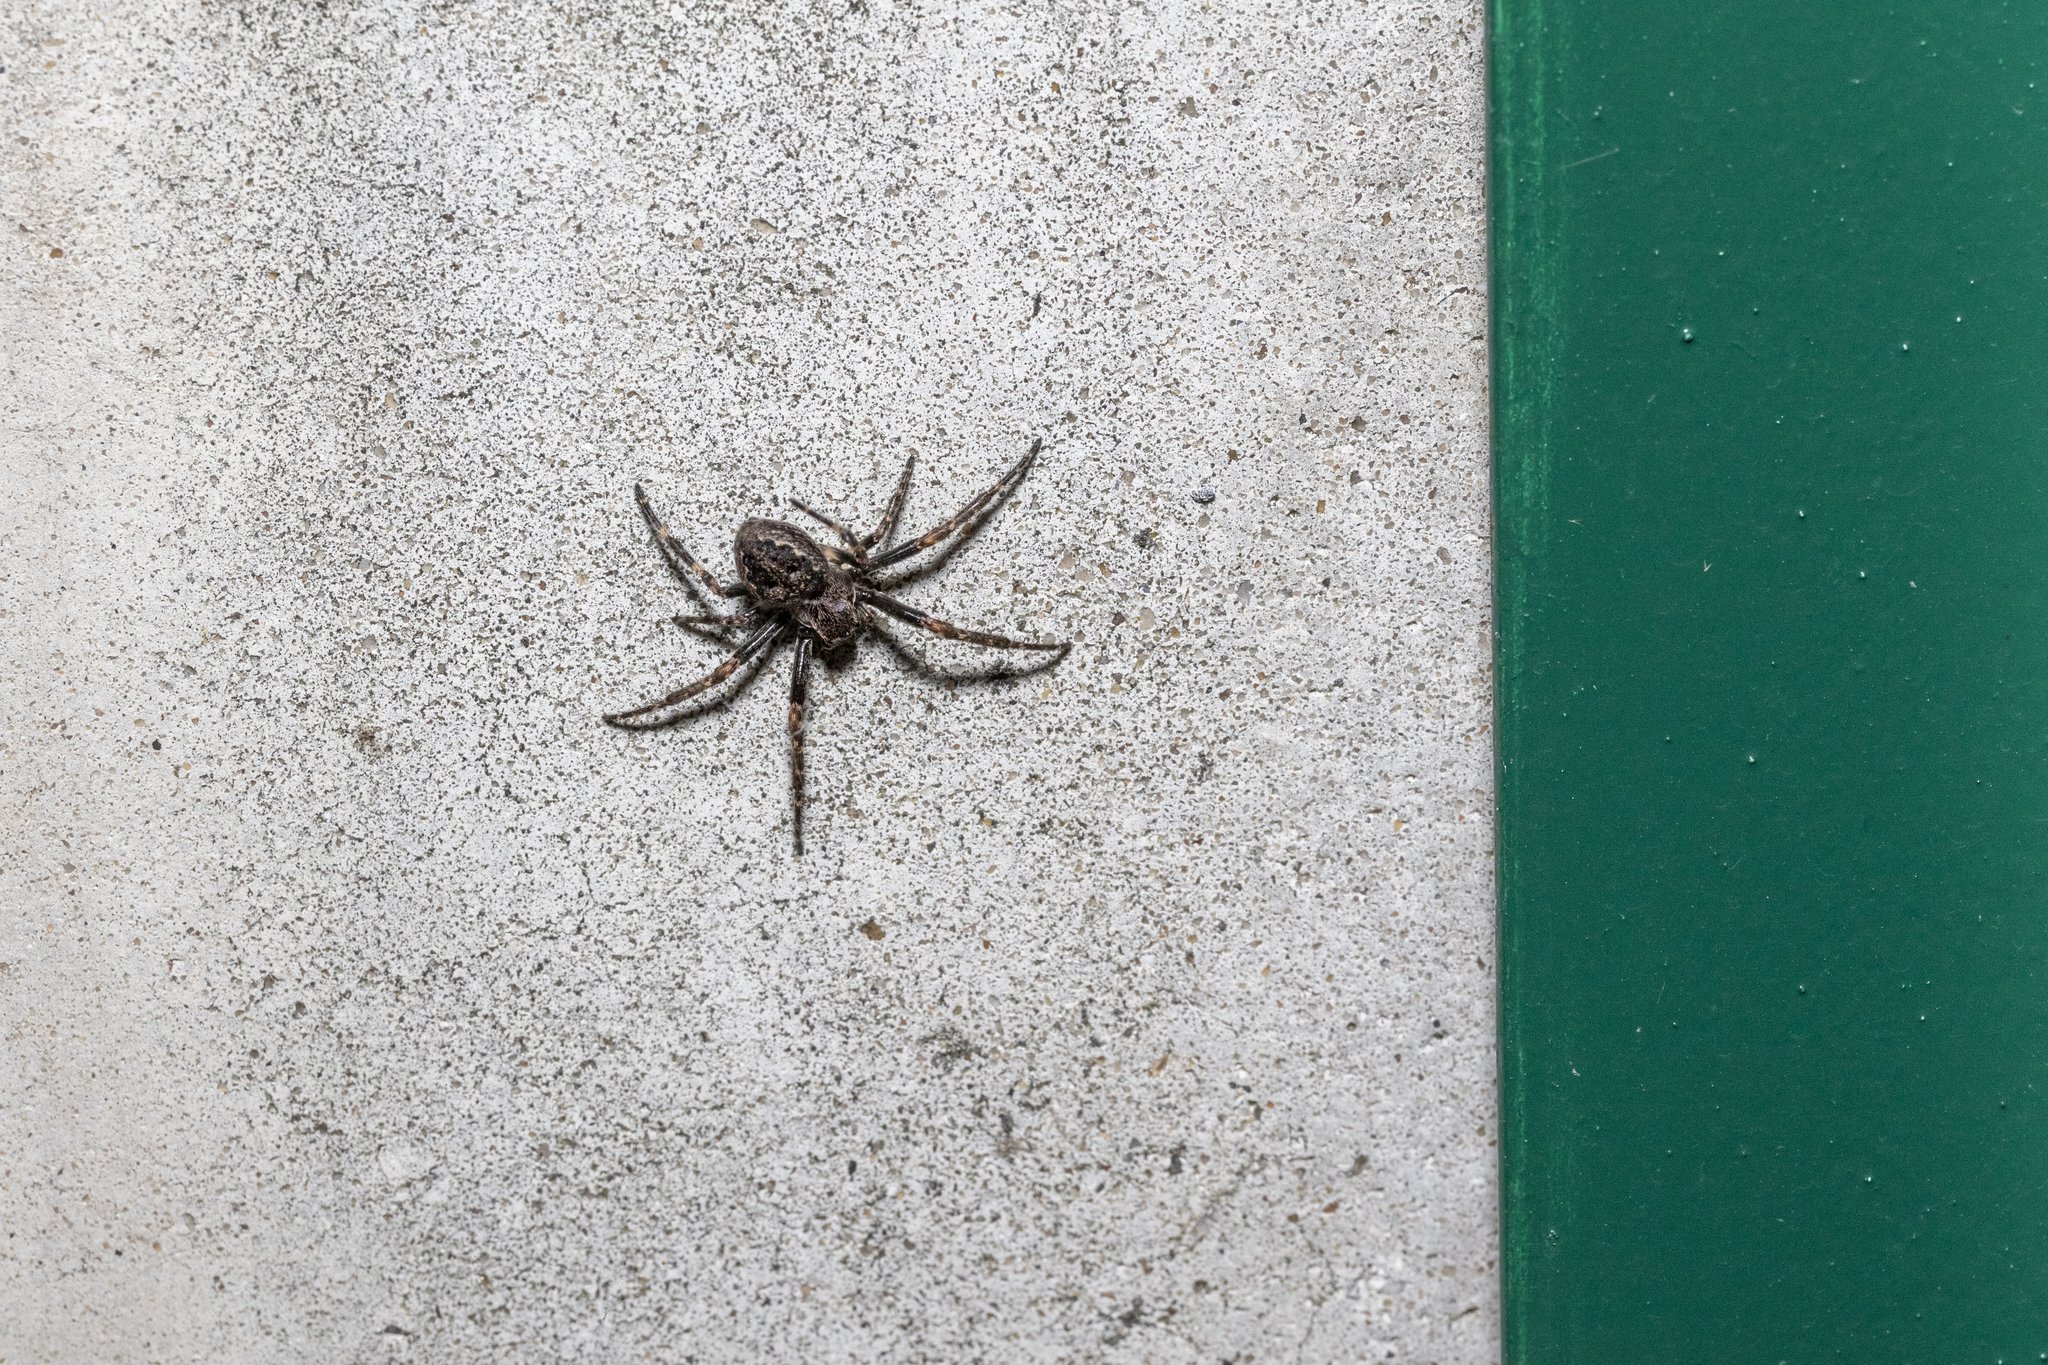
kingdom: Animalia
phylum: Arthropoda
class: Arachnida
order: Araneae
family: Araneidae
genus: Nuctenea
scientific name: Nuctenea umbratica
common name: Toad spider
